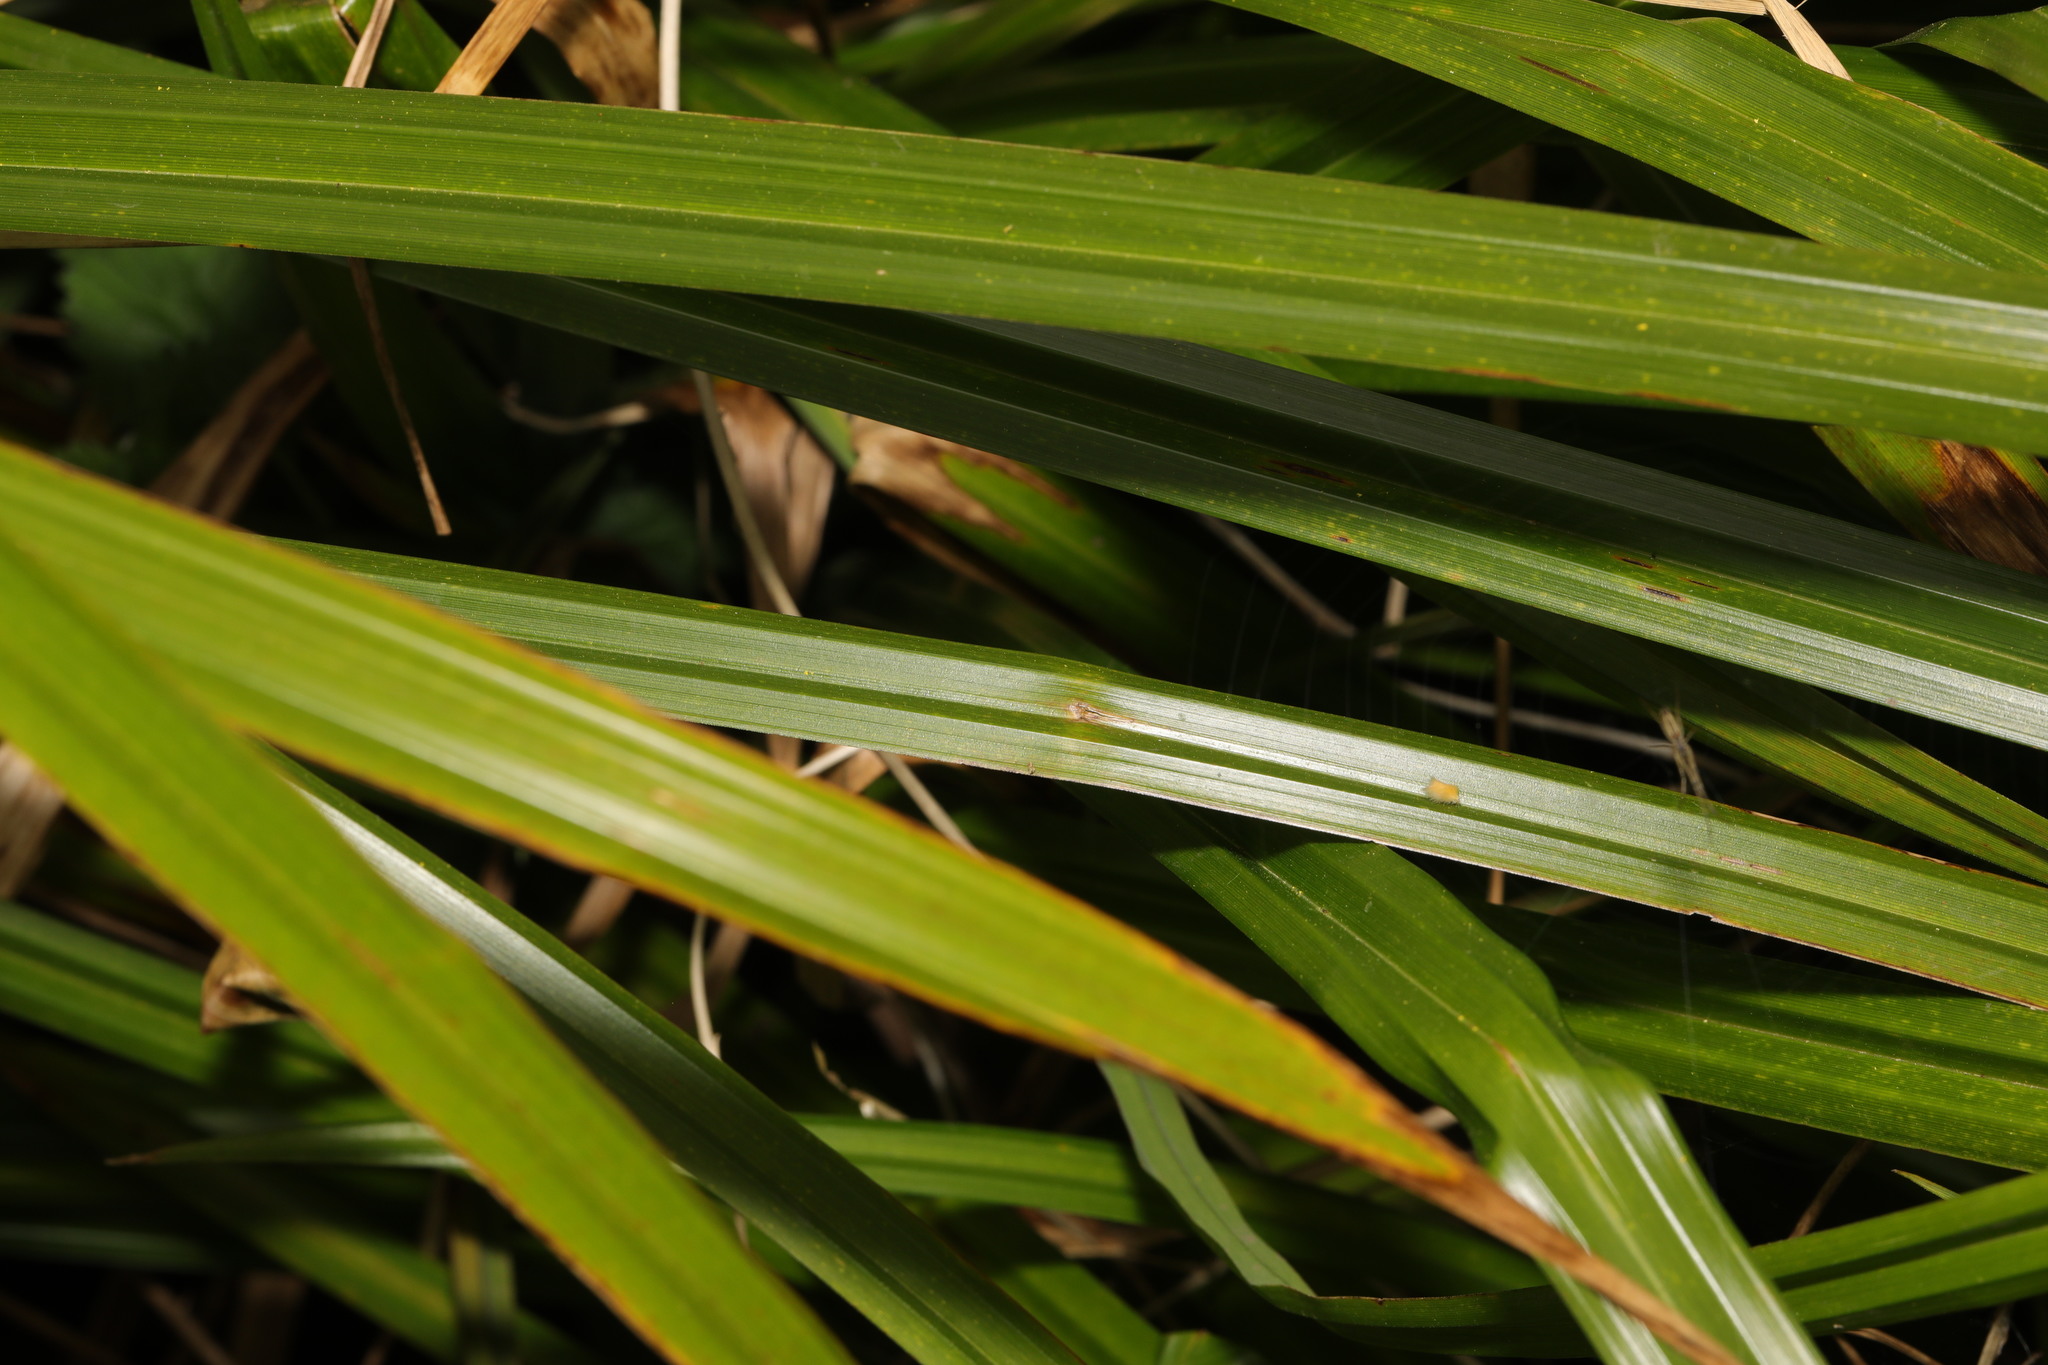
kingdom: Plantae
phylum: Tracheophyta
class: Liliopsida
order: Poales
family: Cyperaceae
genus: Carex
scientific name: Carex pendula
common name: Pendulous sedge
